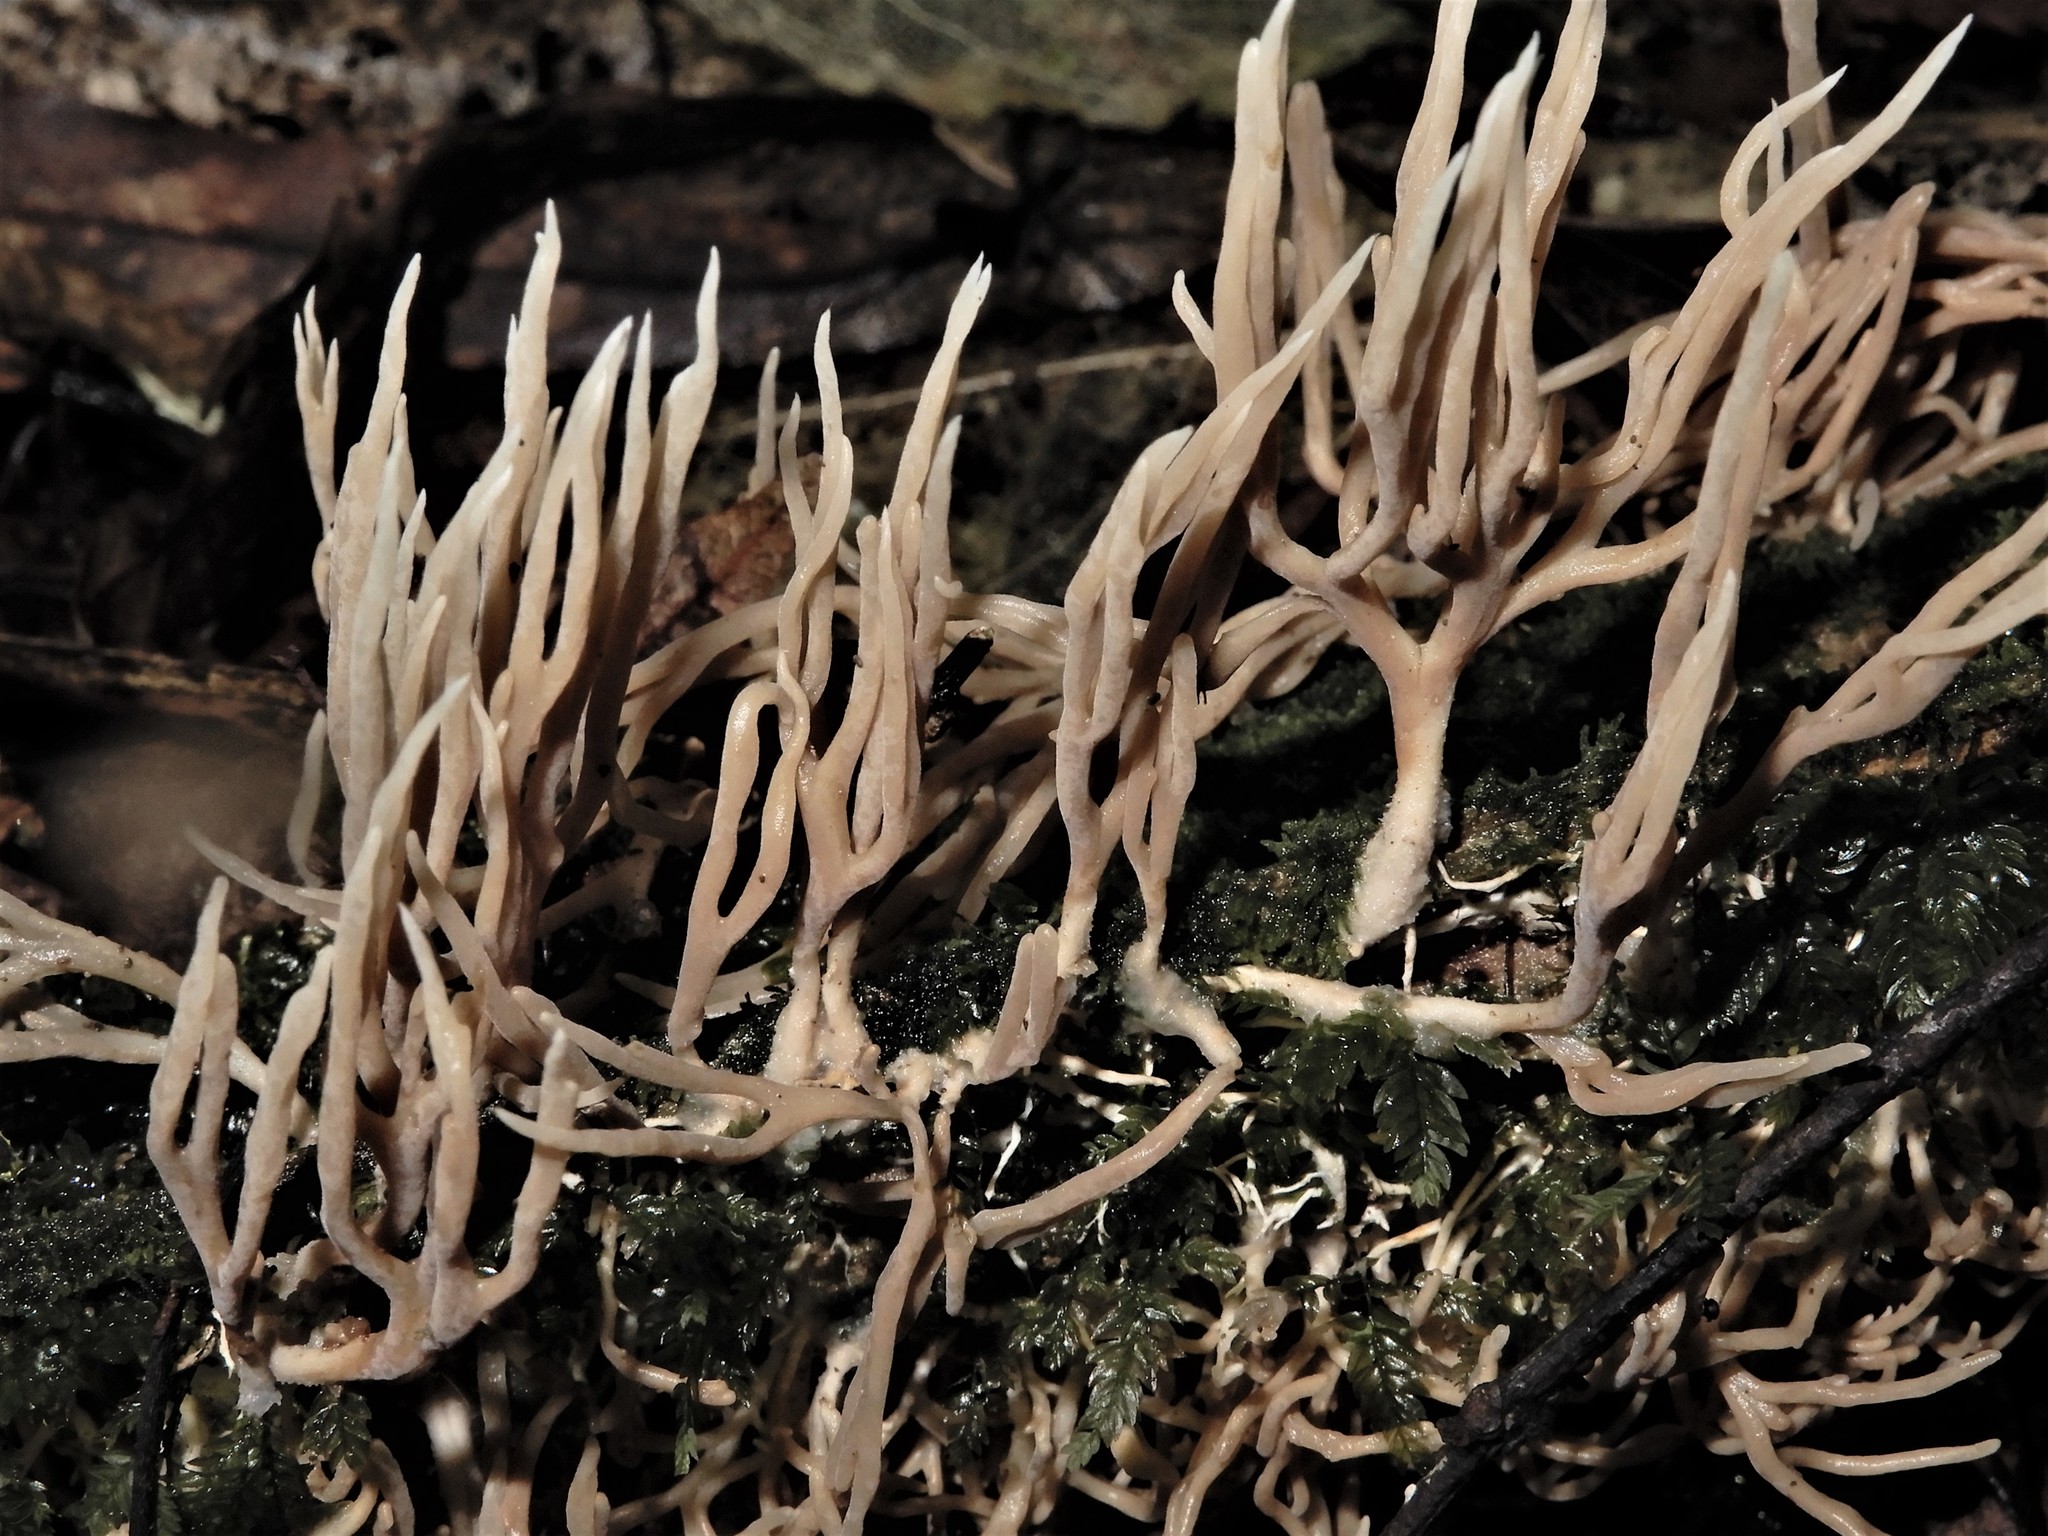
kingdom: Fungi
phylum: Basidiomycota
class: Agaricomycetes
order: Gomphales
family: Lentariaceae
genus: Lentaria
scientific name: Lentaria glaucosiccescens
